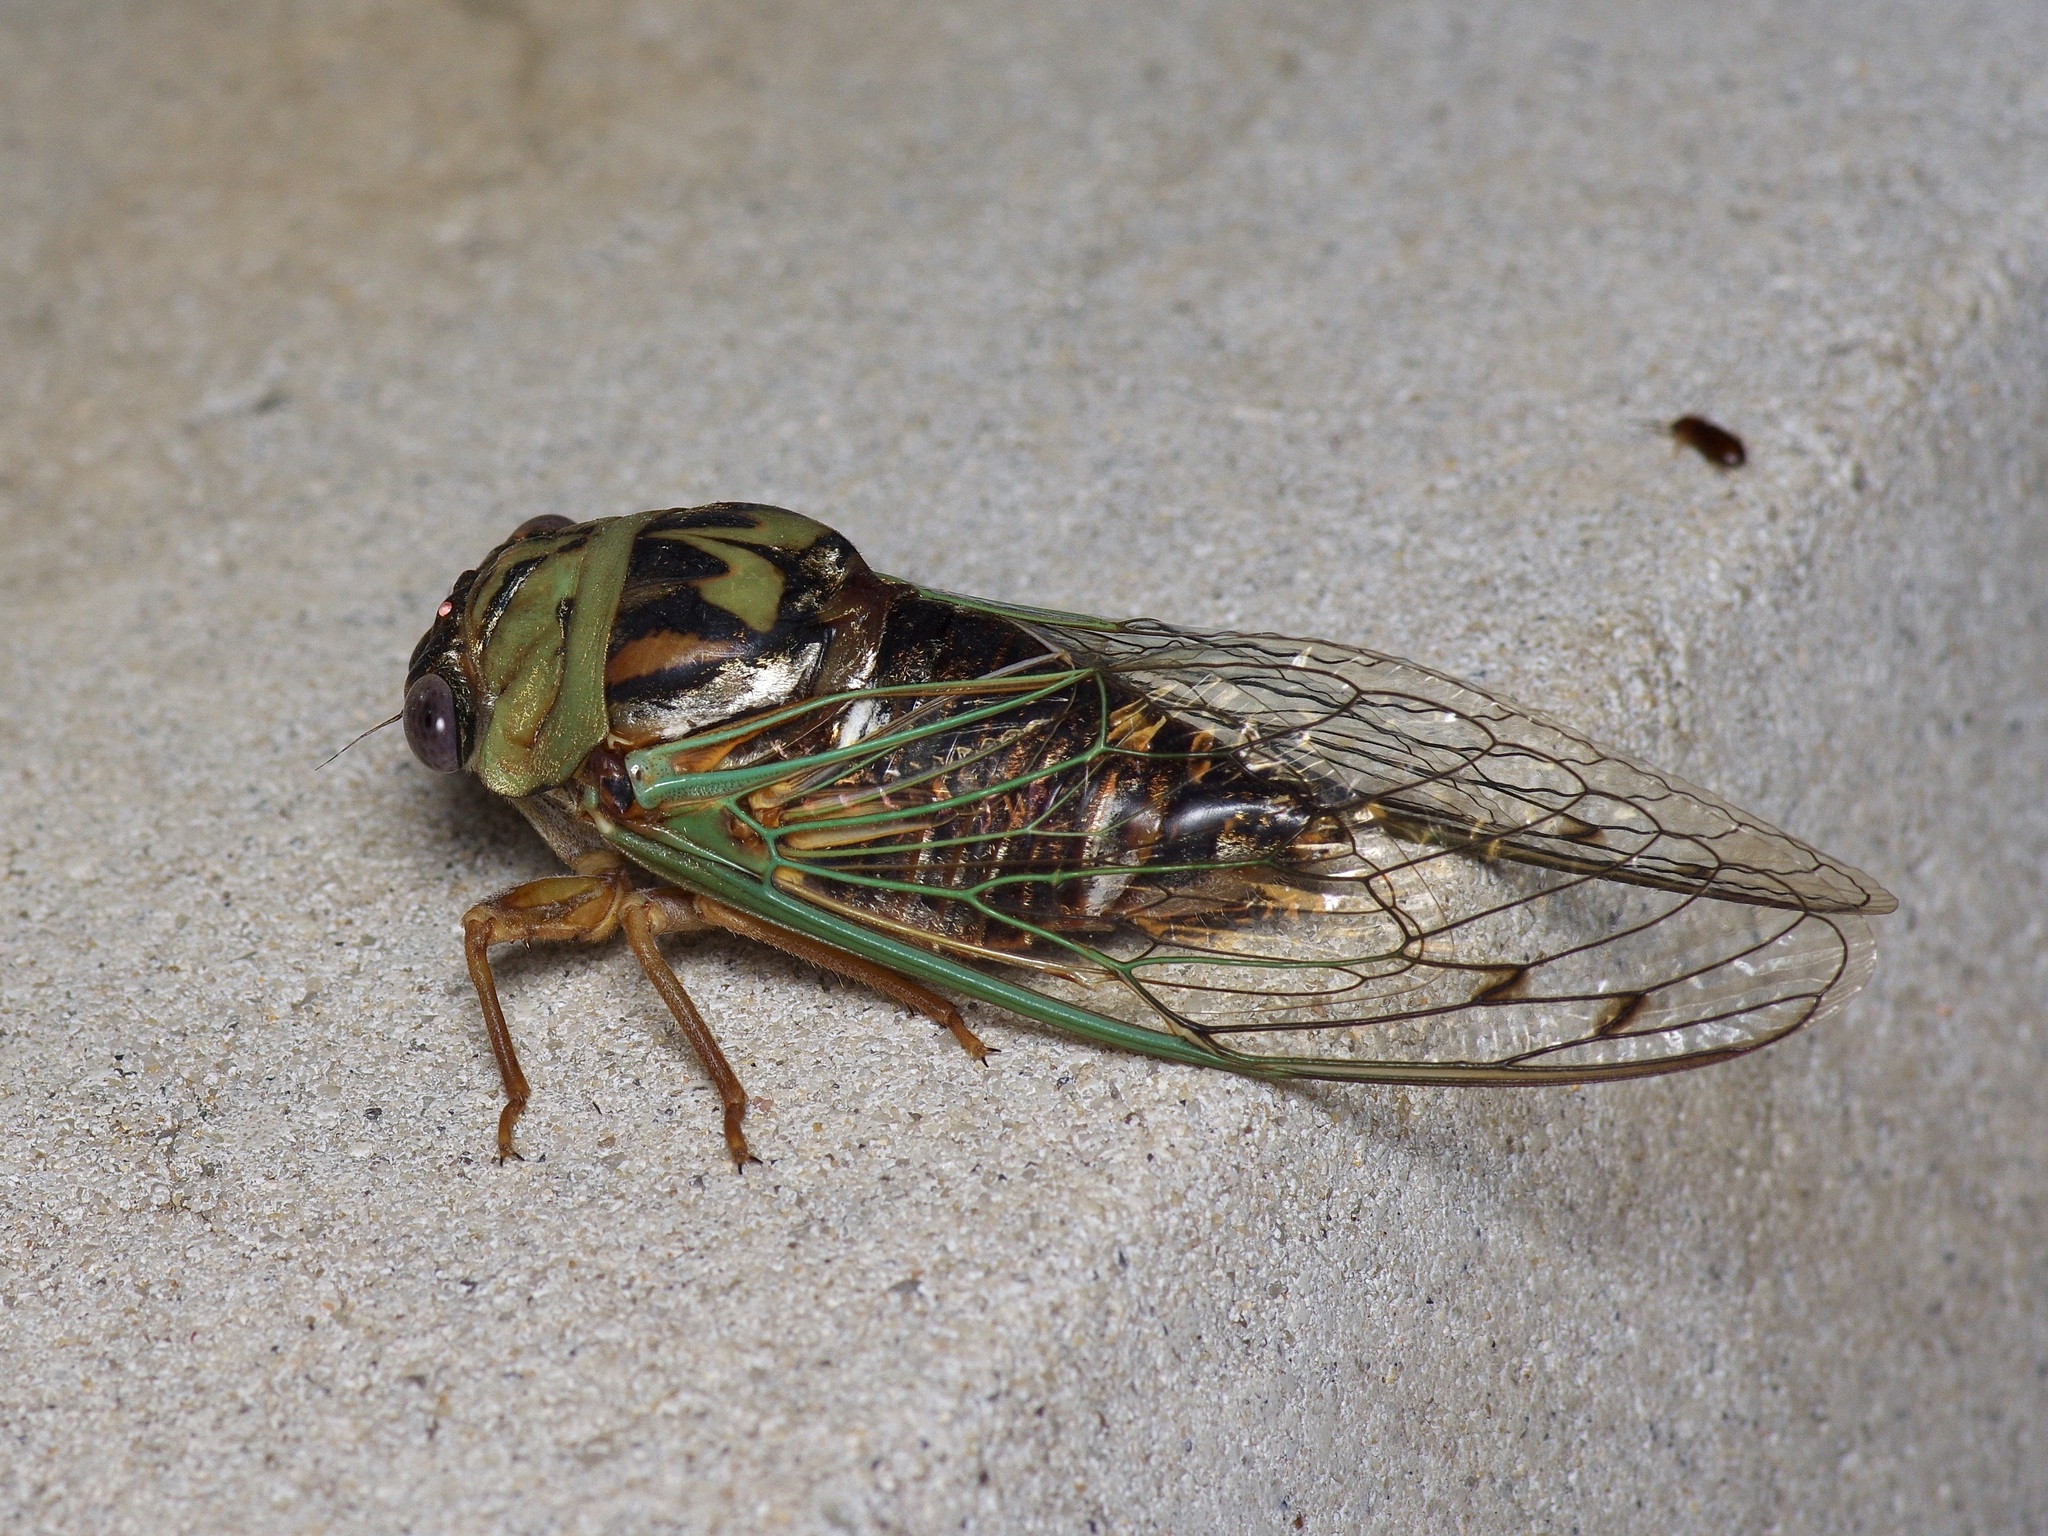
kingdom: Animalia
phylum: Arthropoda
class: Insecta
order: Hemiptera
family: Cicadidae
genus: Megatibicen
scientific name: Megatibicen resh
